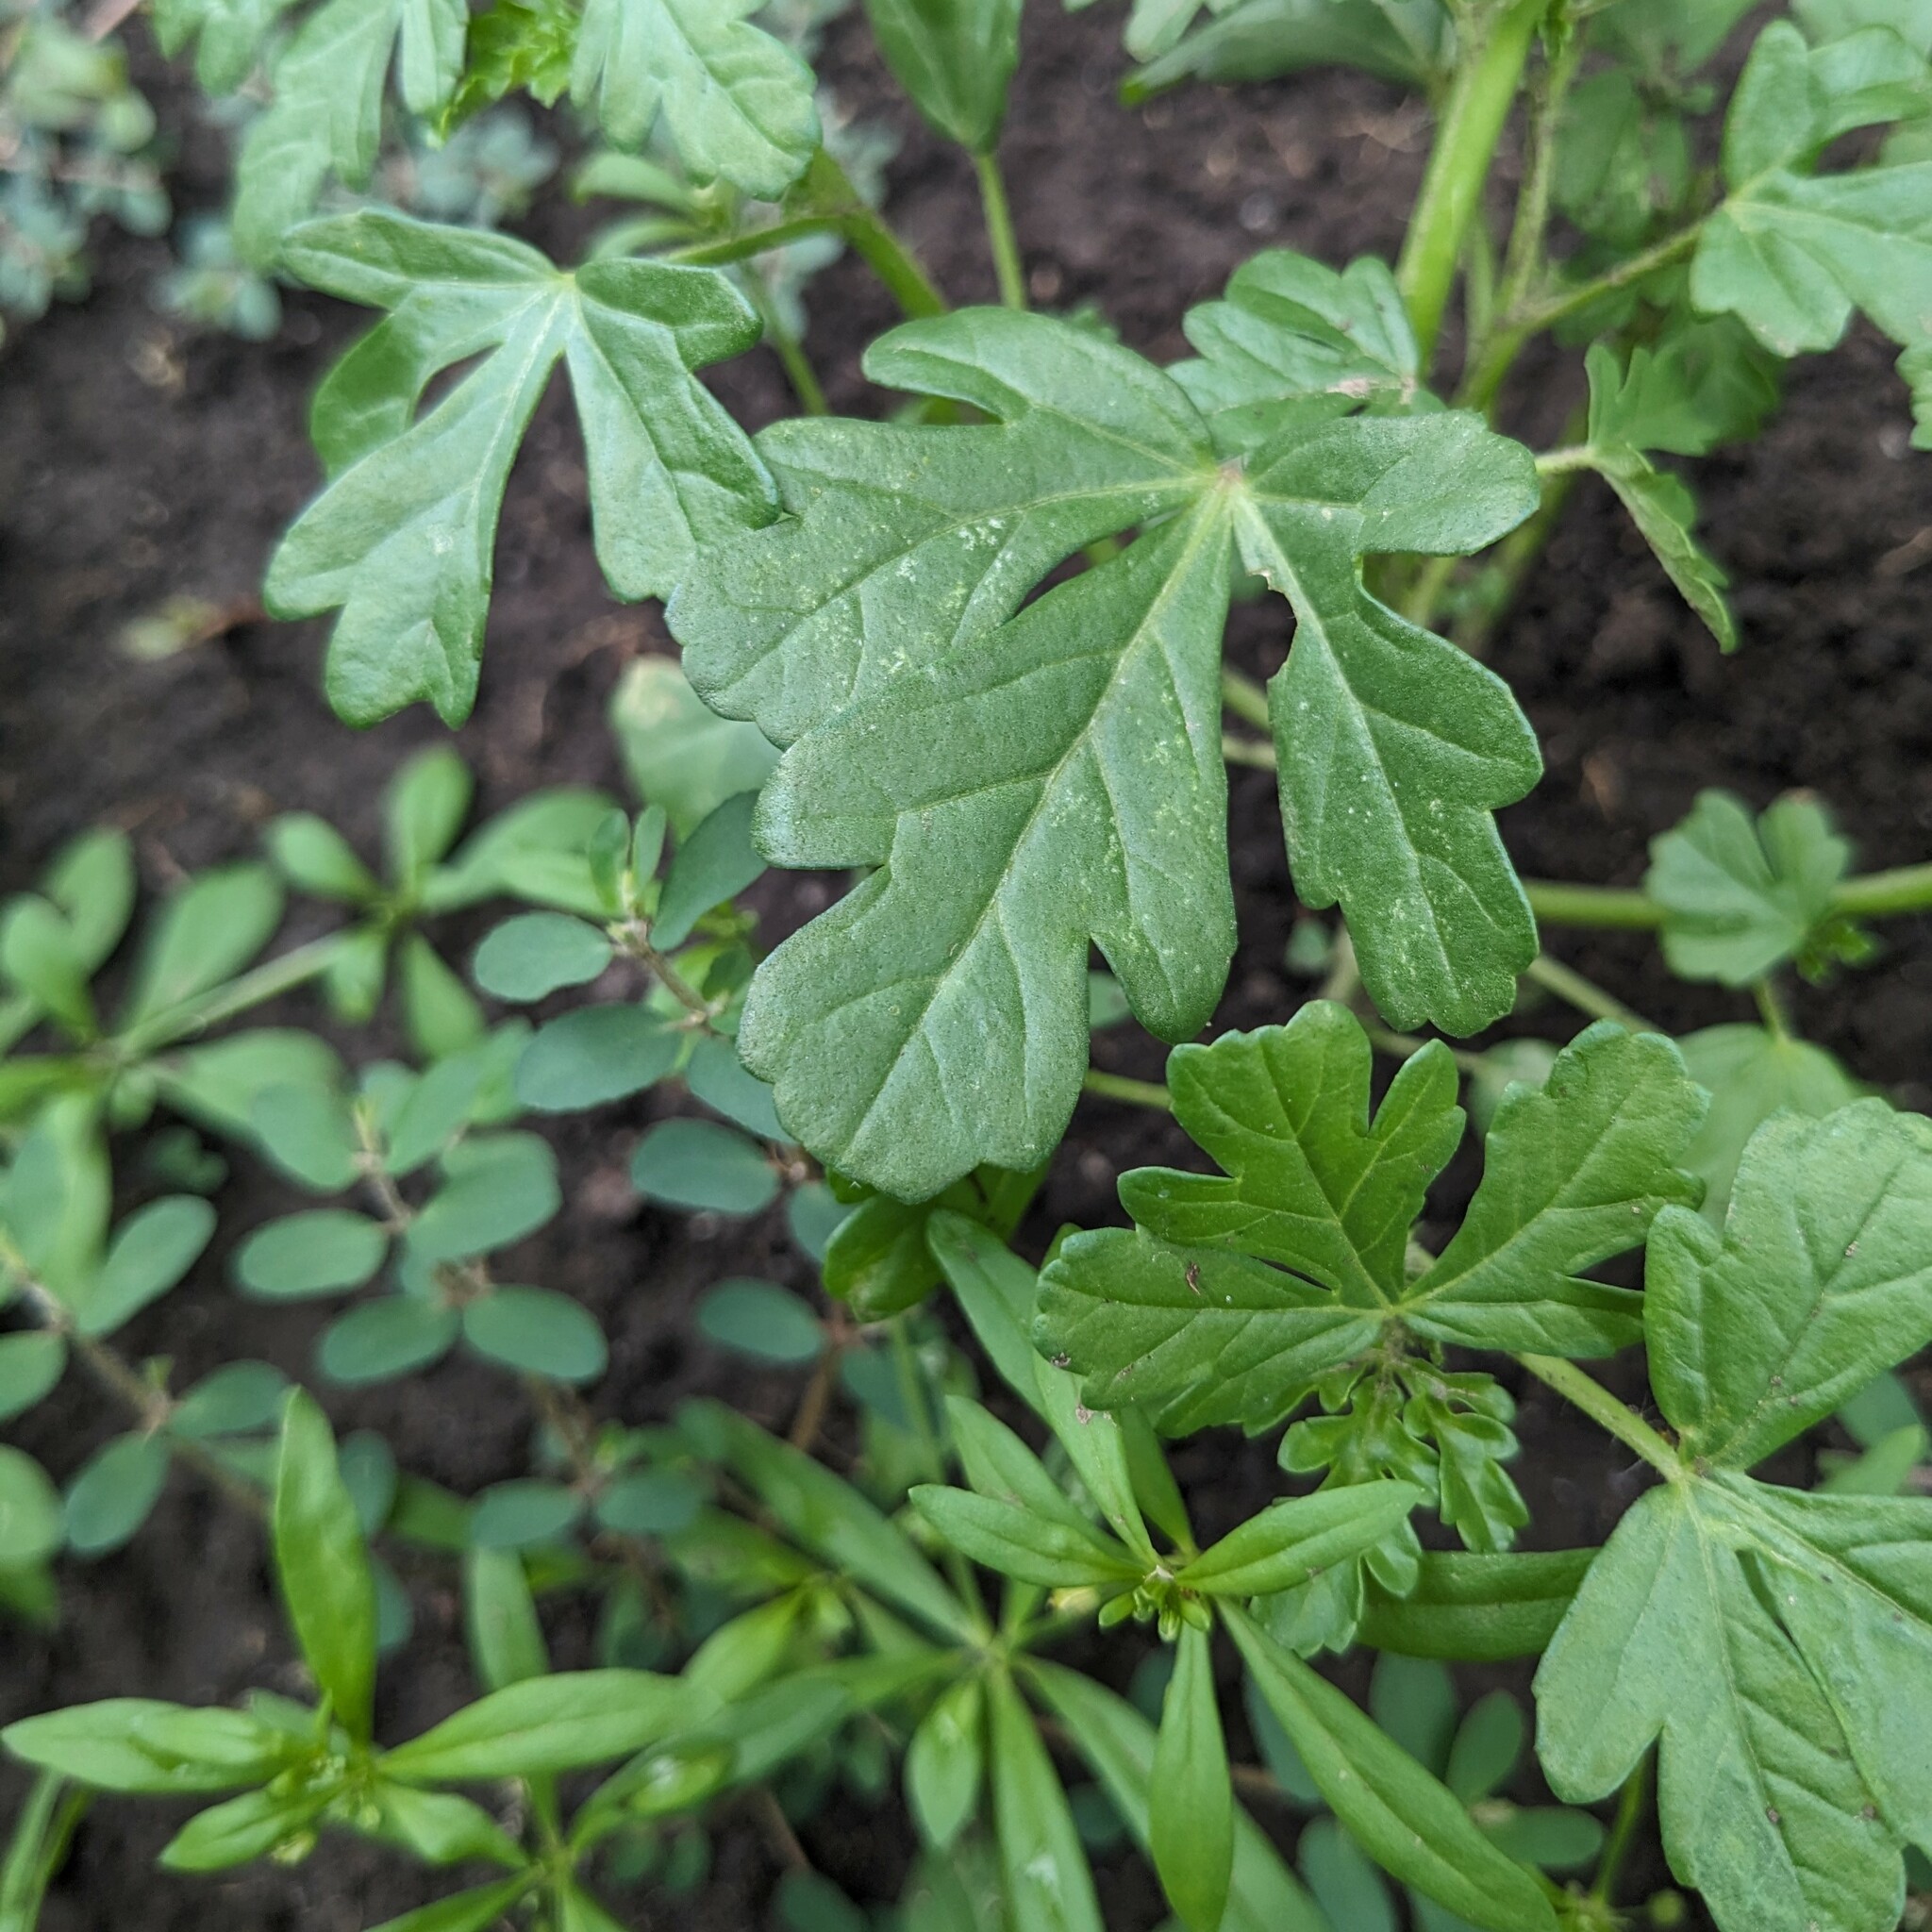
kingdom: Plantae
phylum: Tracheophyta
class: Magnoliopsida
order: Malvales
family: Malvaceae
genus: Hibiscus
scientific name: Hibiscus trionum
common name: Bladder ketmia
